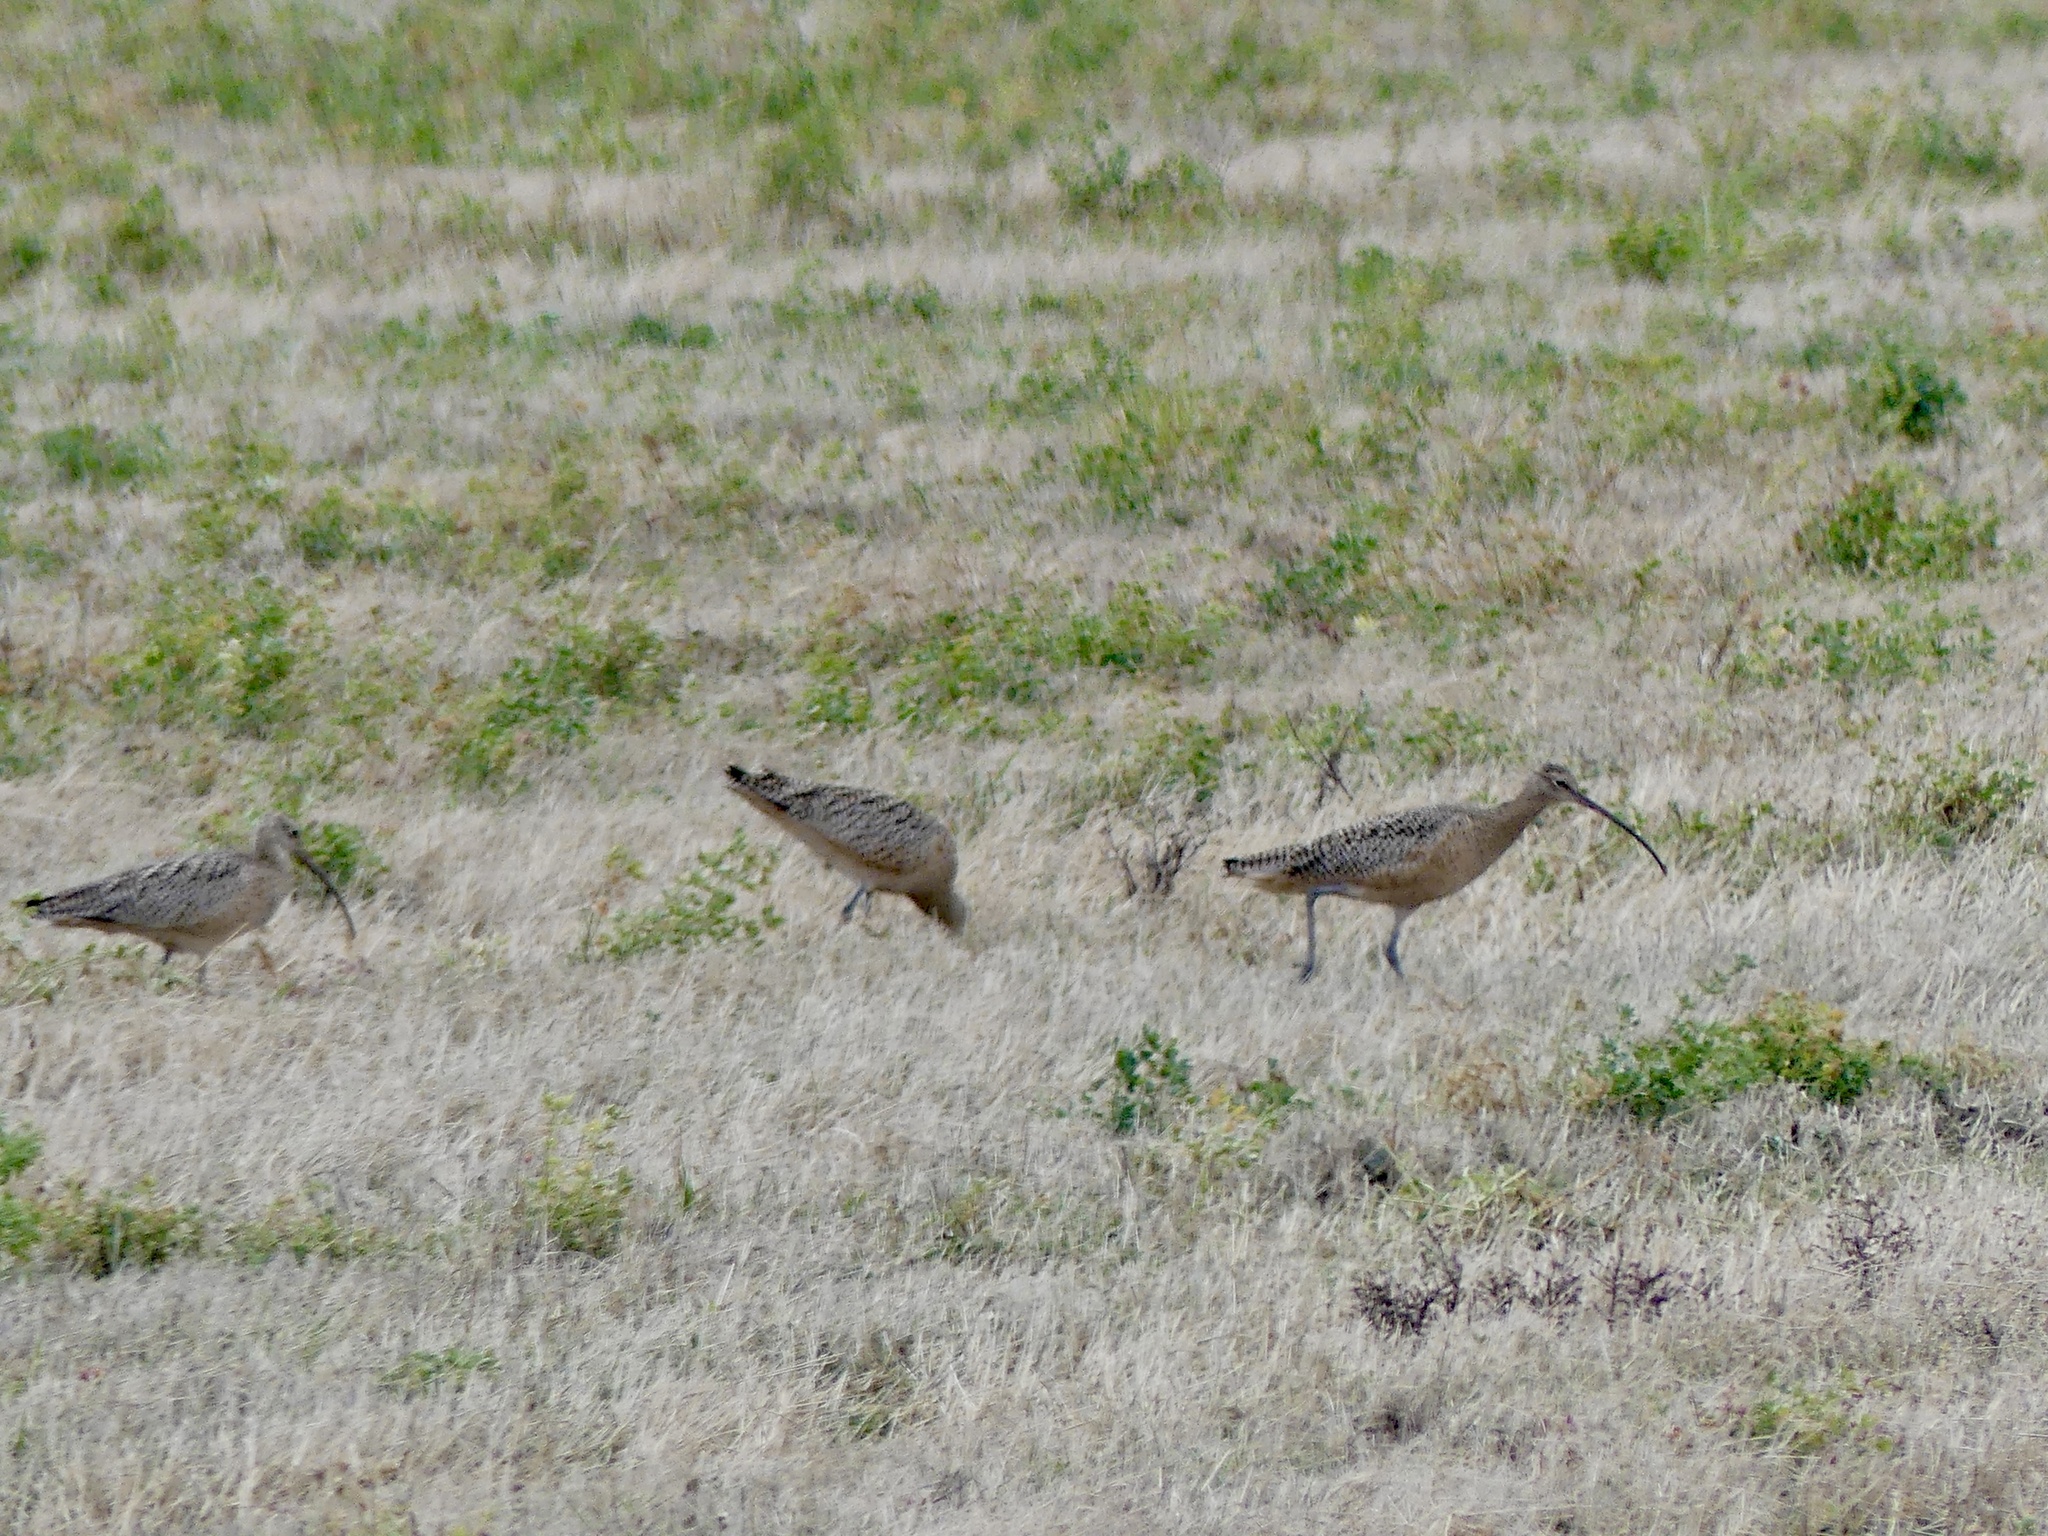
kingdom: Animalia
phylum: Chordata
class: Aves
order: Charadriiformes
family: Scolopacidae
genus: Numenius
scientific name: Numenius americanus
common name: Long-billed curlew
